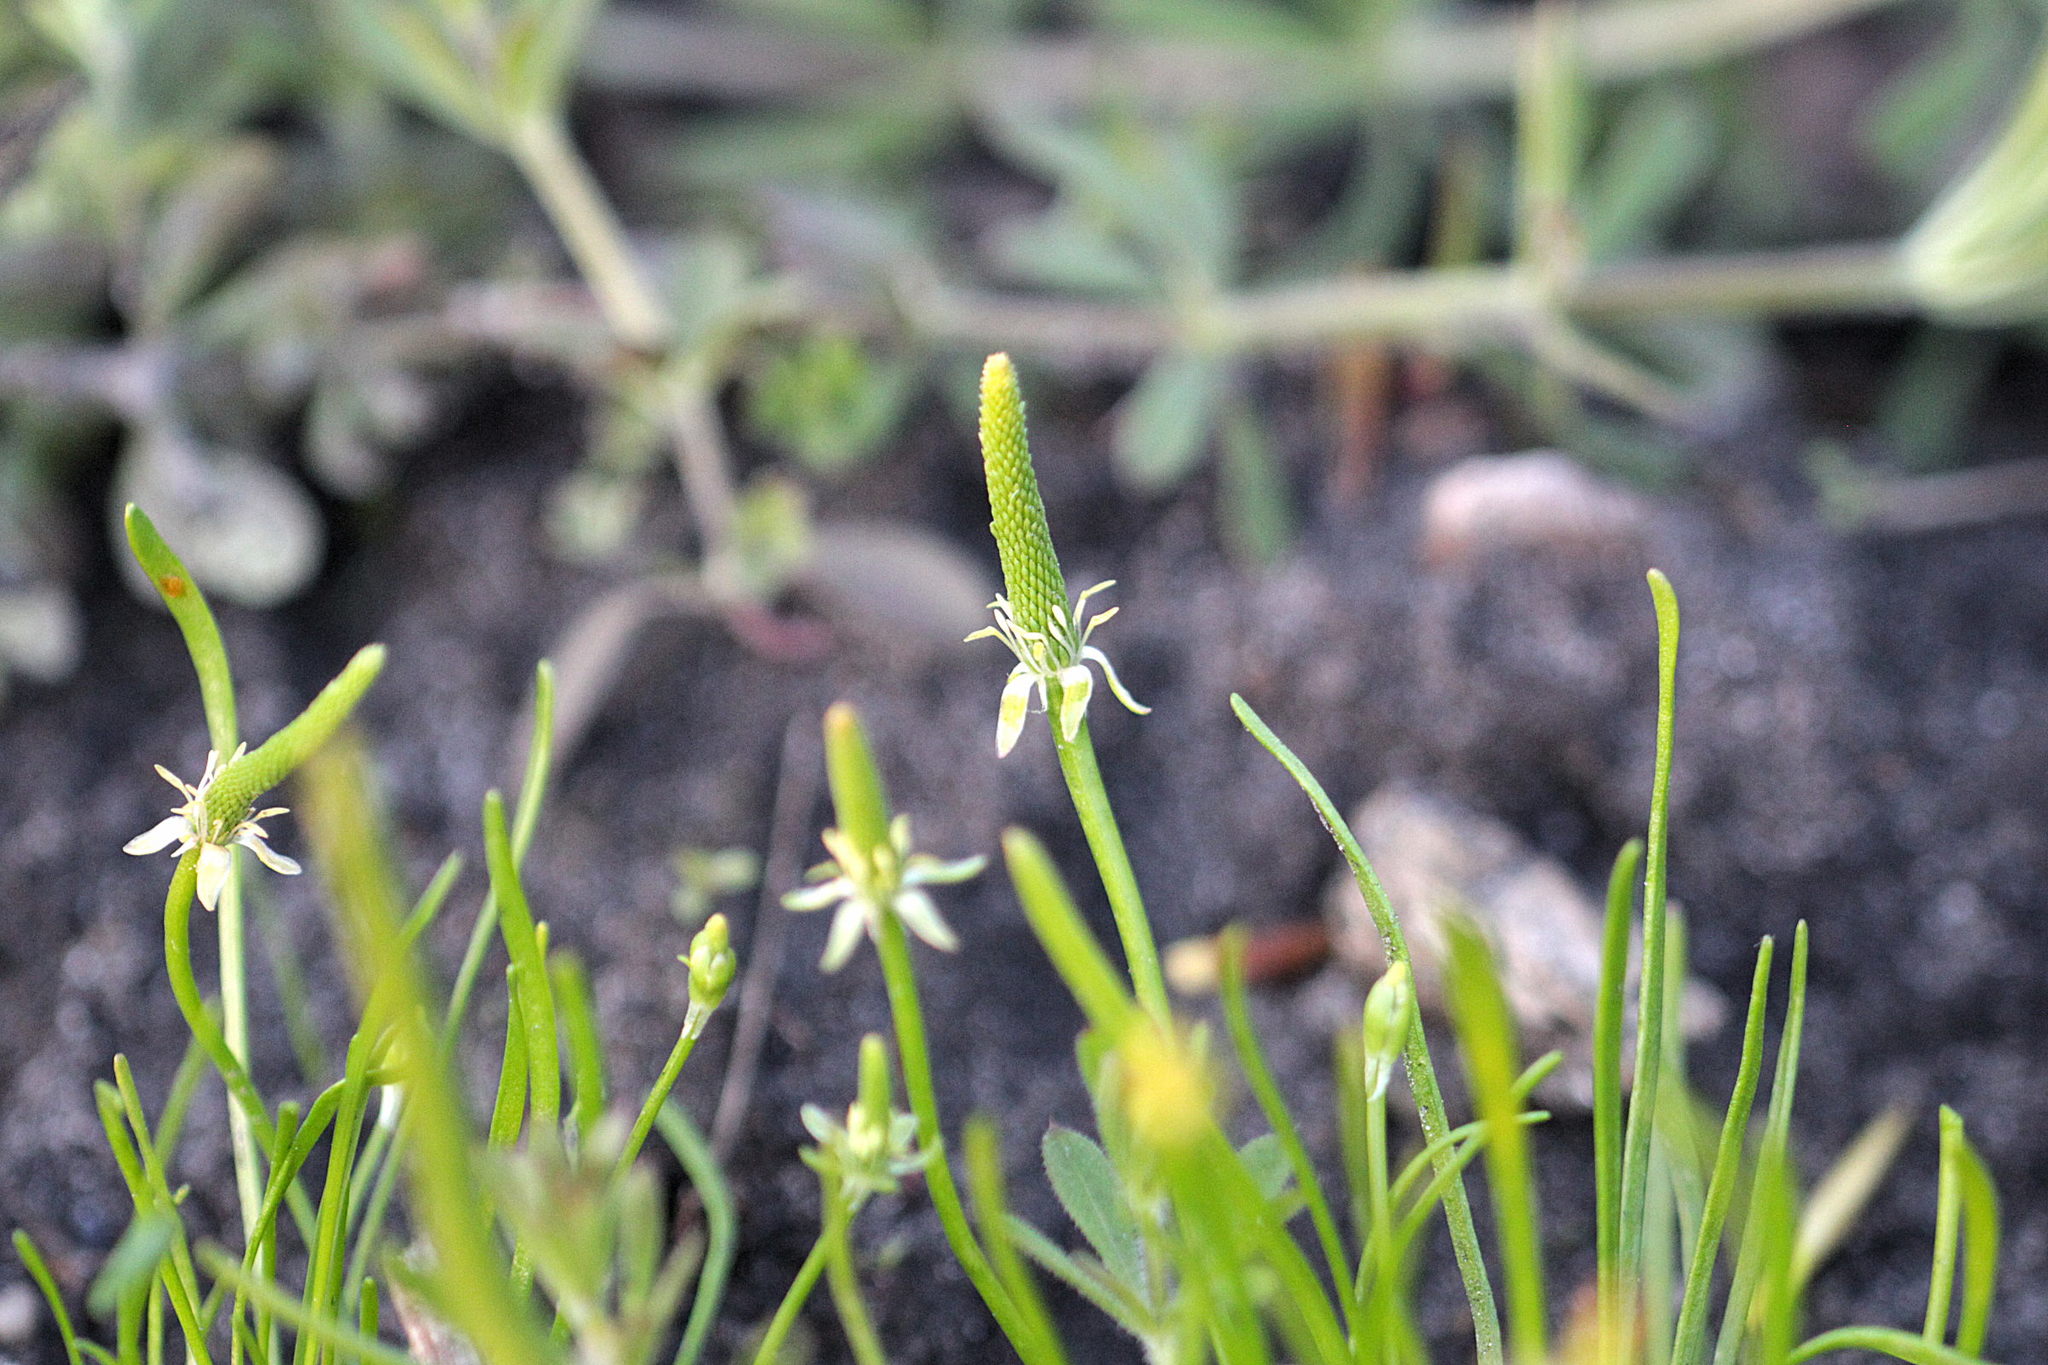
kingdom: Plantae
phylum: Tracheophyta
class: Magnoliopsida
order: Ranunculales
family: Ranunculaceae
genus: Myosurus
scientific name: Myosurus minimus
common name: Mousetail
